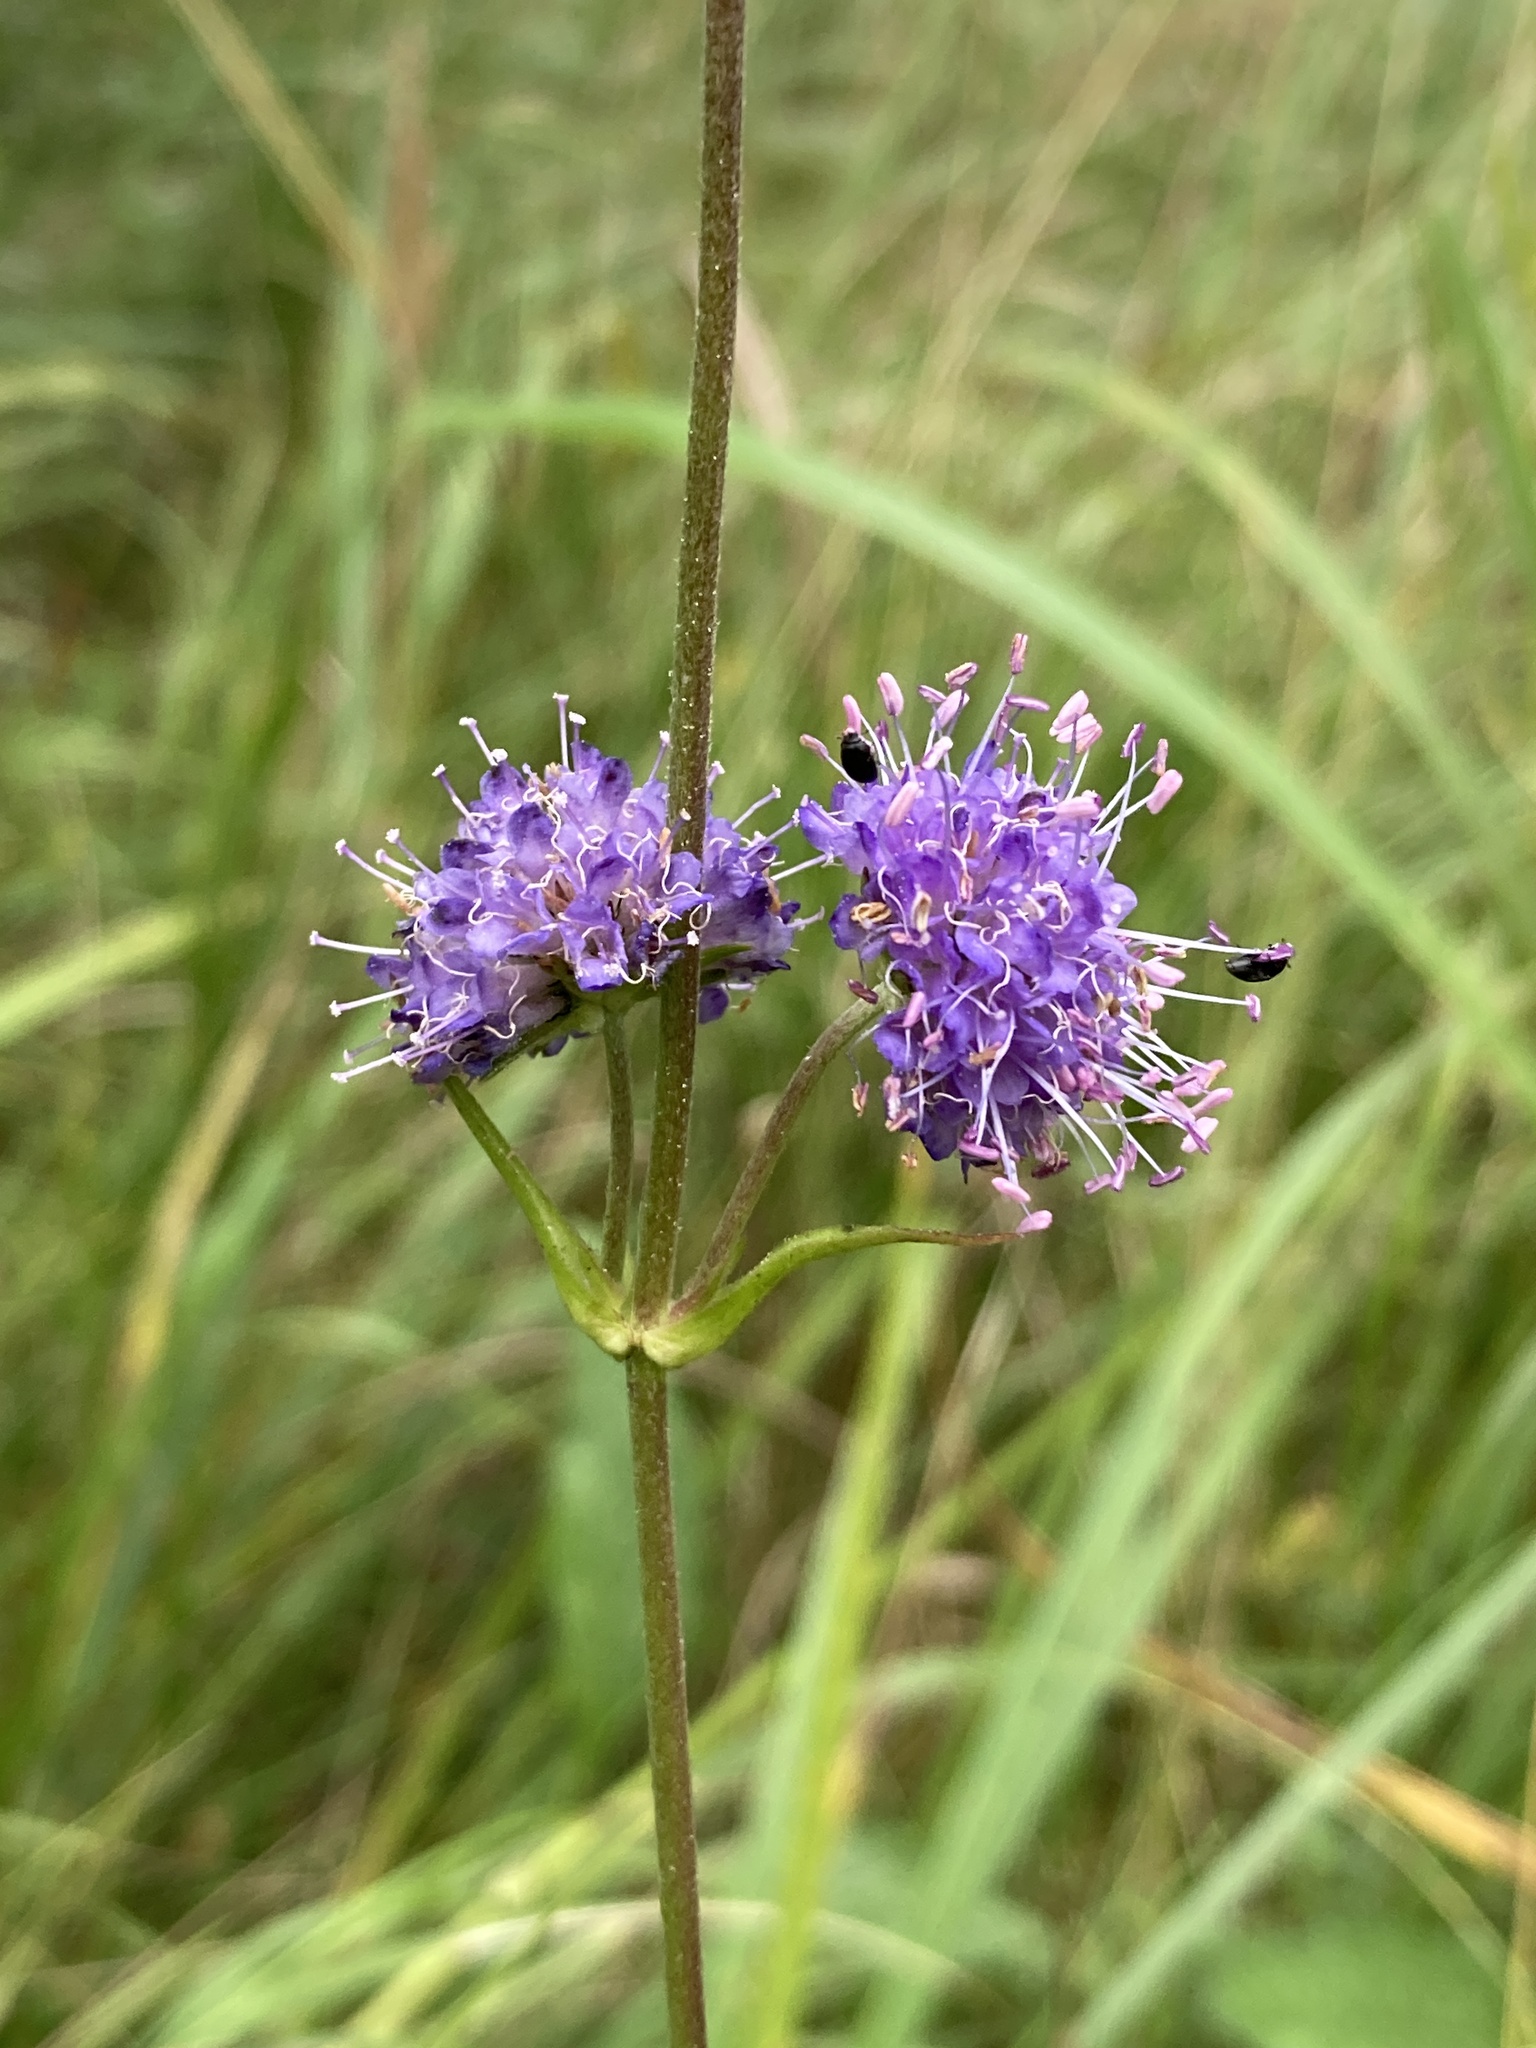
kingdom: Plantae
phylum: Tracheophyta
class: Magnoliopsida
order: Dipsacales
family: Caprifoliaceae
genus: Succisa
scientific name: Succisa pratensis
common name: Devil's-bit
